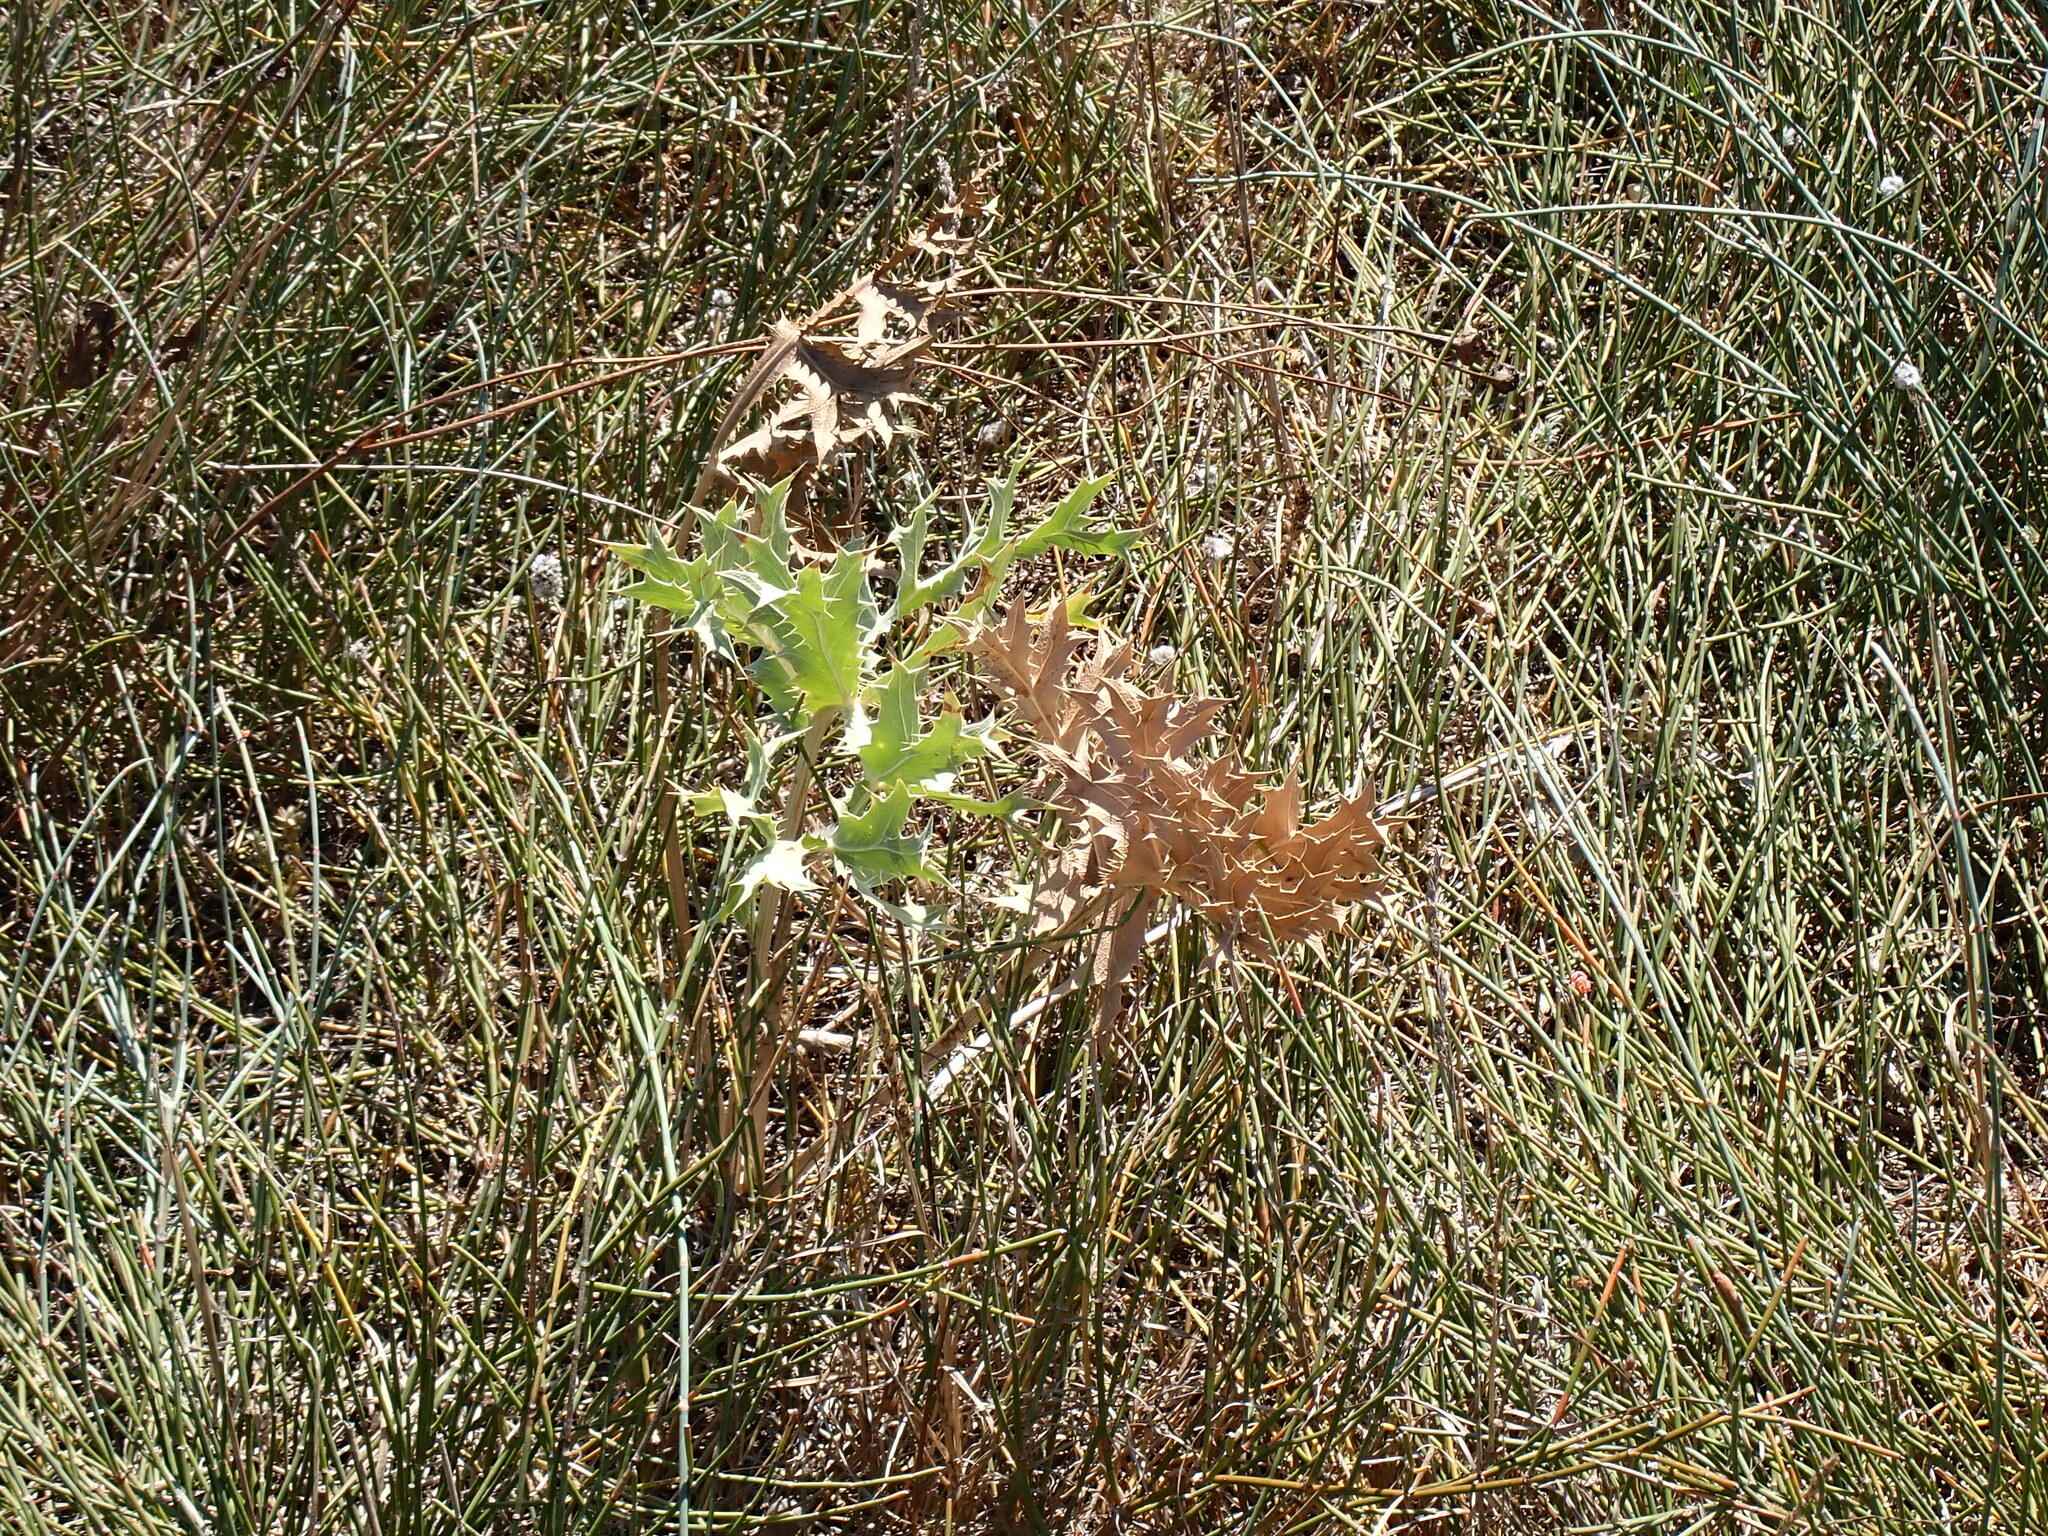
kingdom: Plantae
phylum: Tracheophyta
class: Magnoliopsida
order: Apiales
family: Apiaceae
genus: Eryngium
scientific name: Eryngium campestre
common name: Field eryngo
